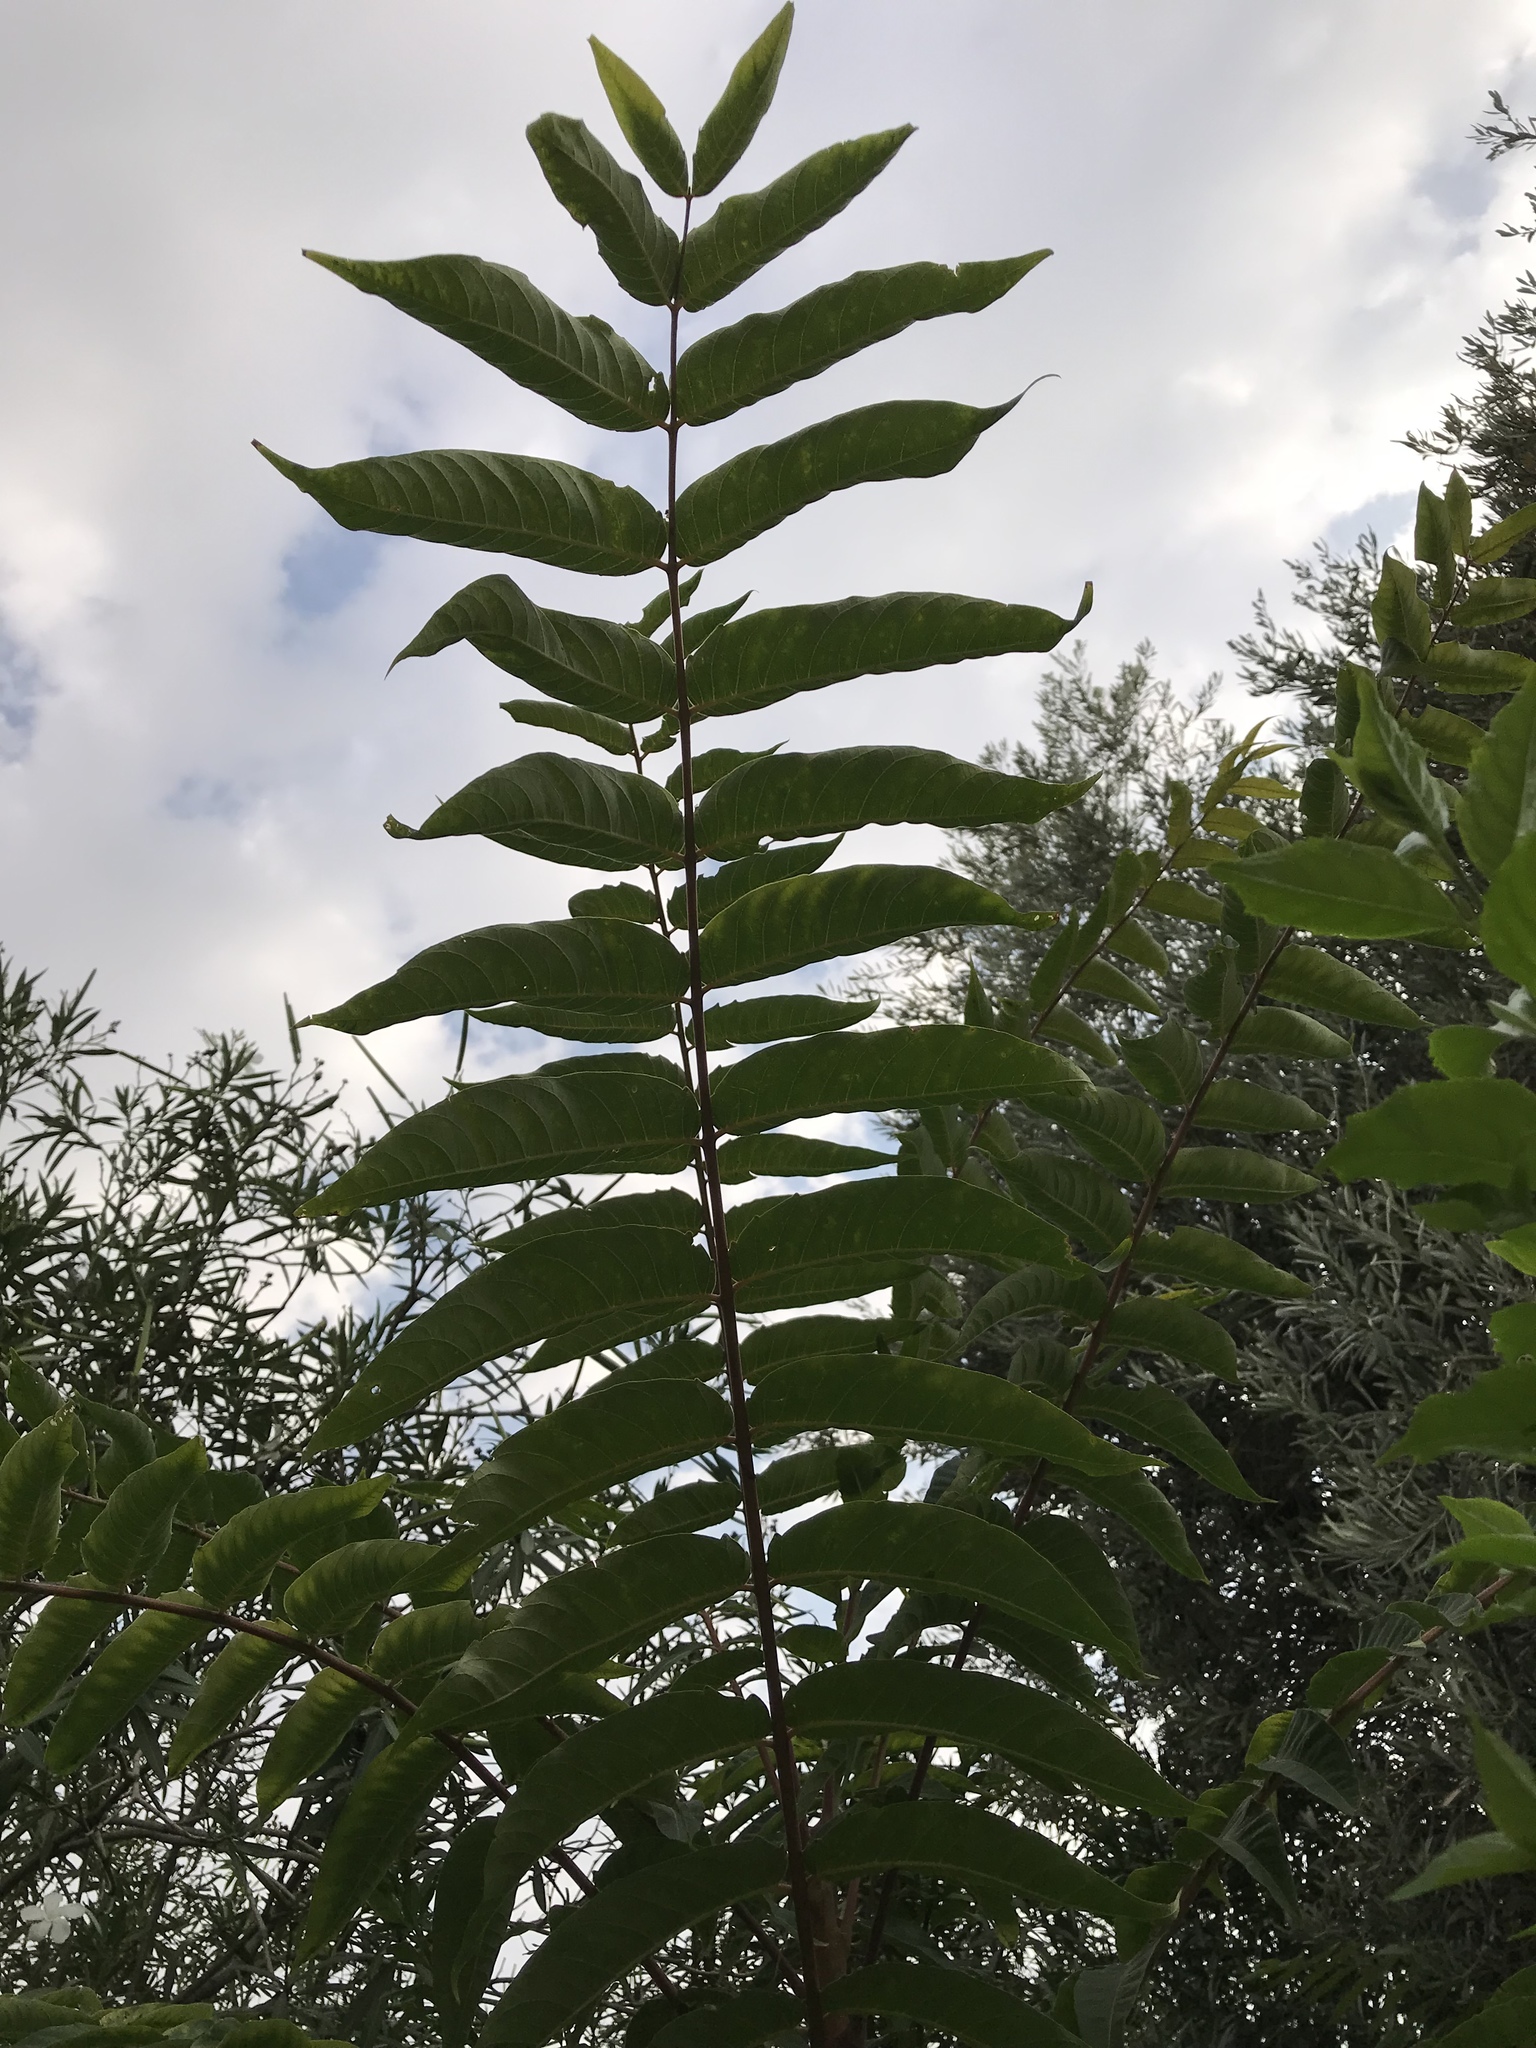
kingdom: Plantae
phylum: Tracheophyta
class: Magnoliopsida
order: Sapindales
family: Simaroubaceae
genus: Ailanthus
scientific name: Ailanthus altissima
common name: Tree-of-heaven
